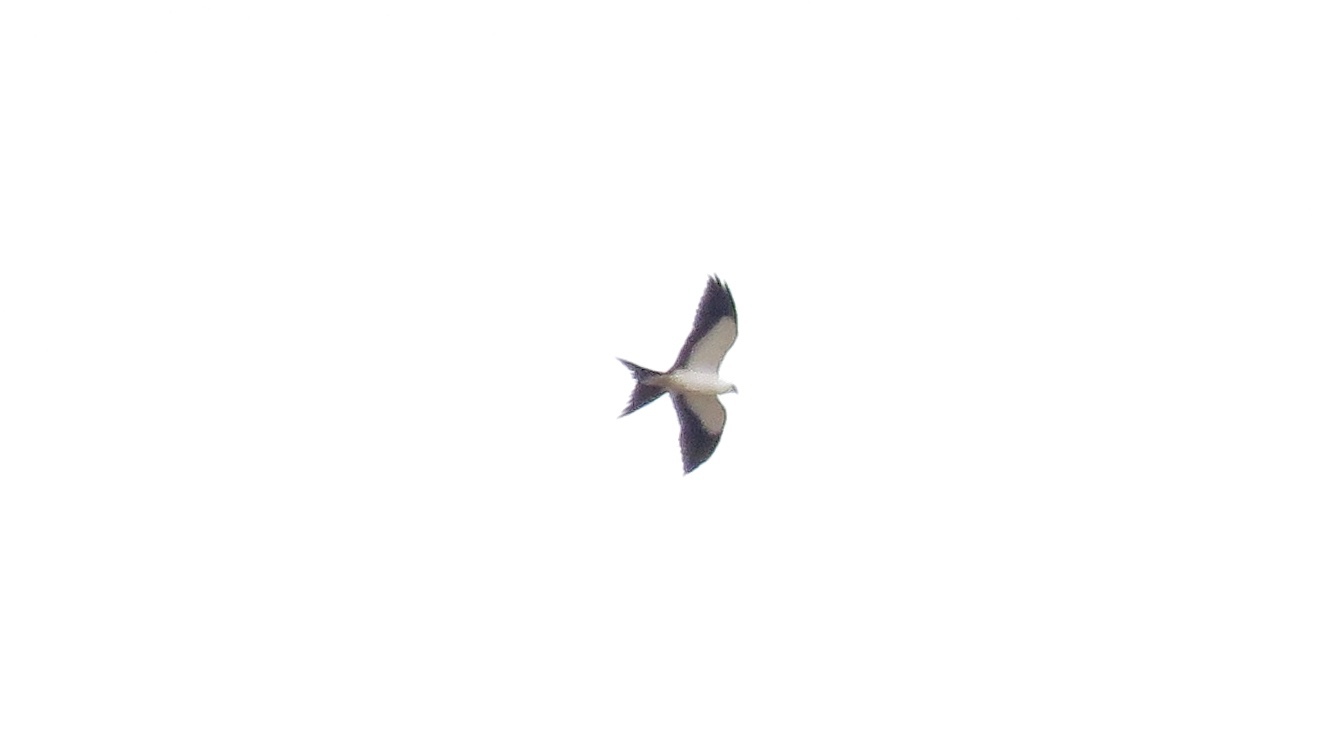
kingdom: Animalia
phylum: Chordata
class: Aves
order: Accipitriformes
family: Accipitridae
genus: Elanoides
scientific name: Elanoides forficatus
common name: Swallow-tailed kite
